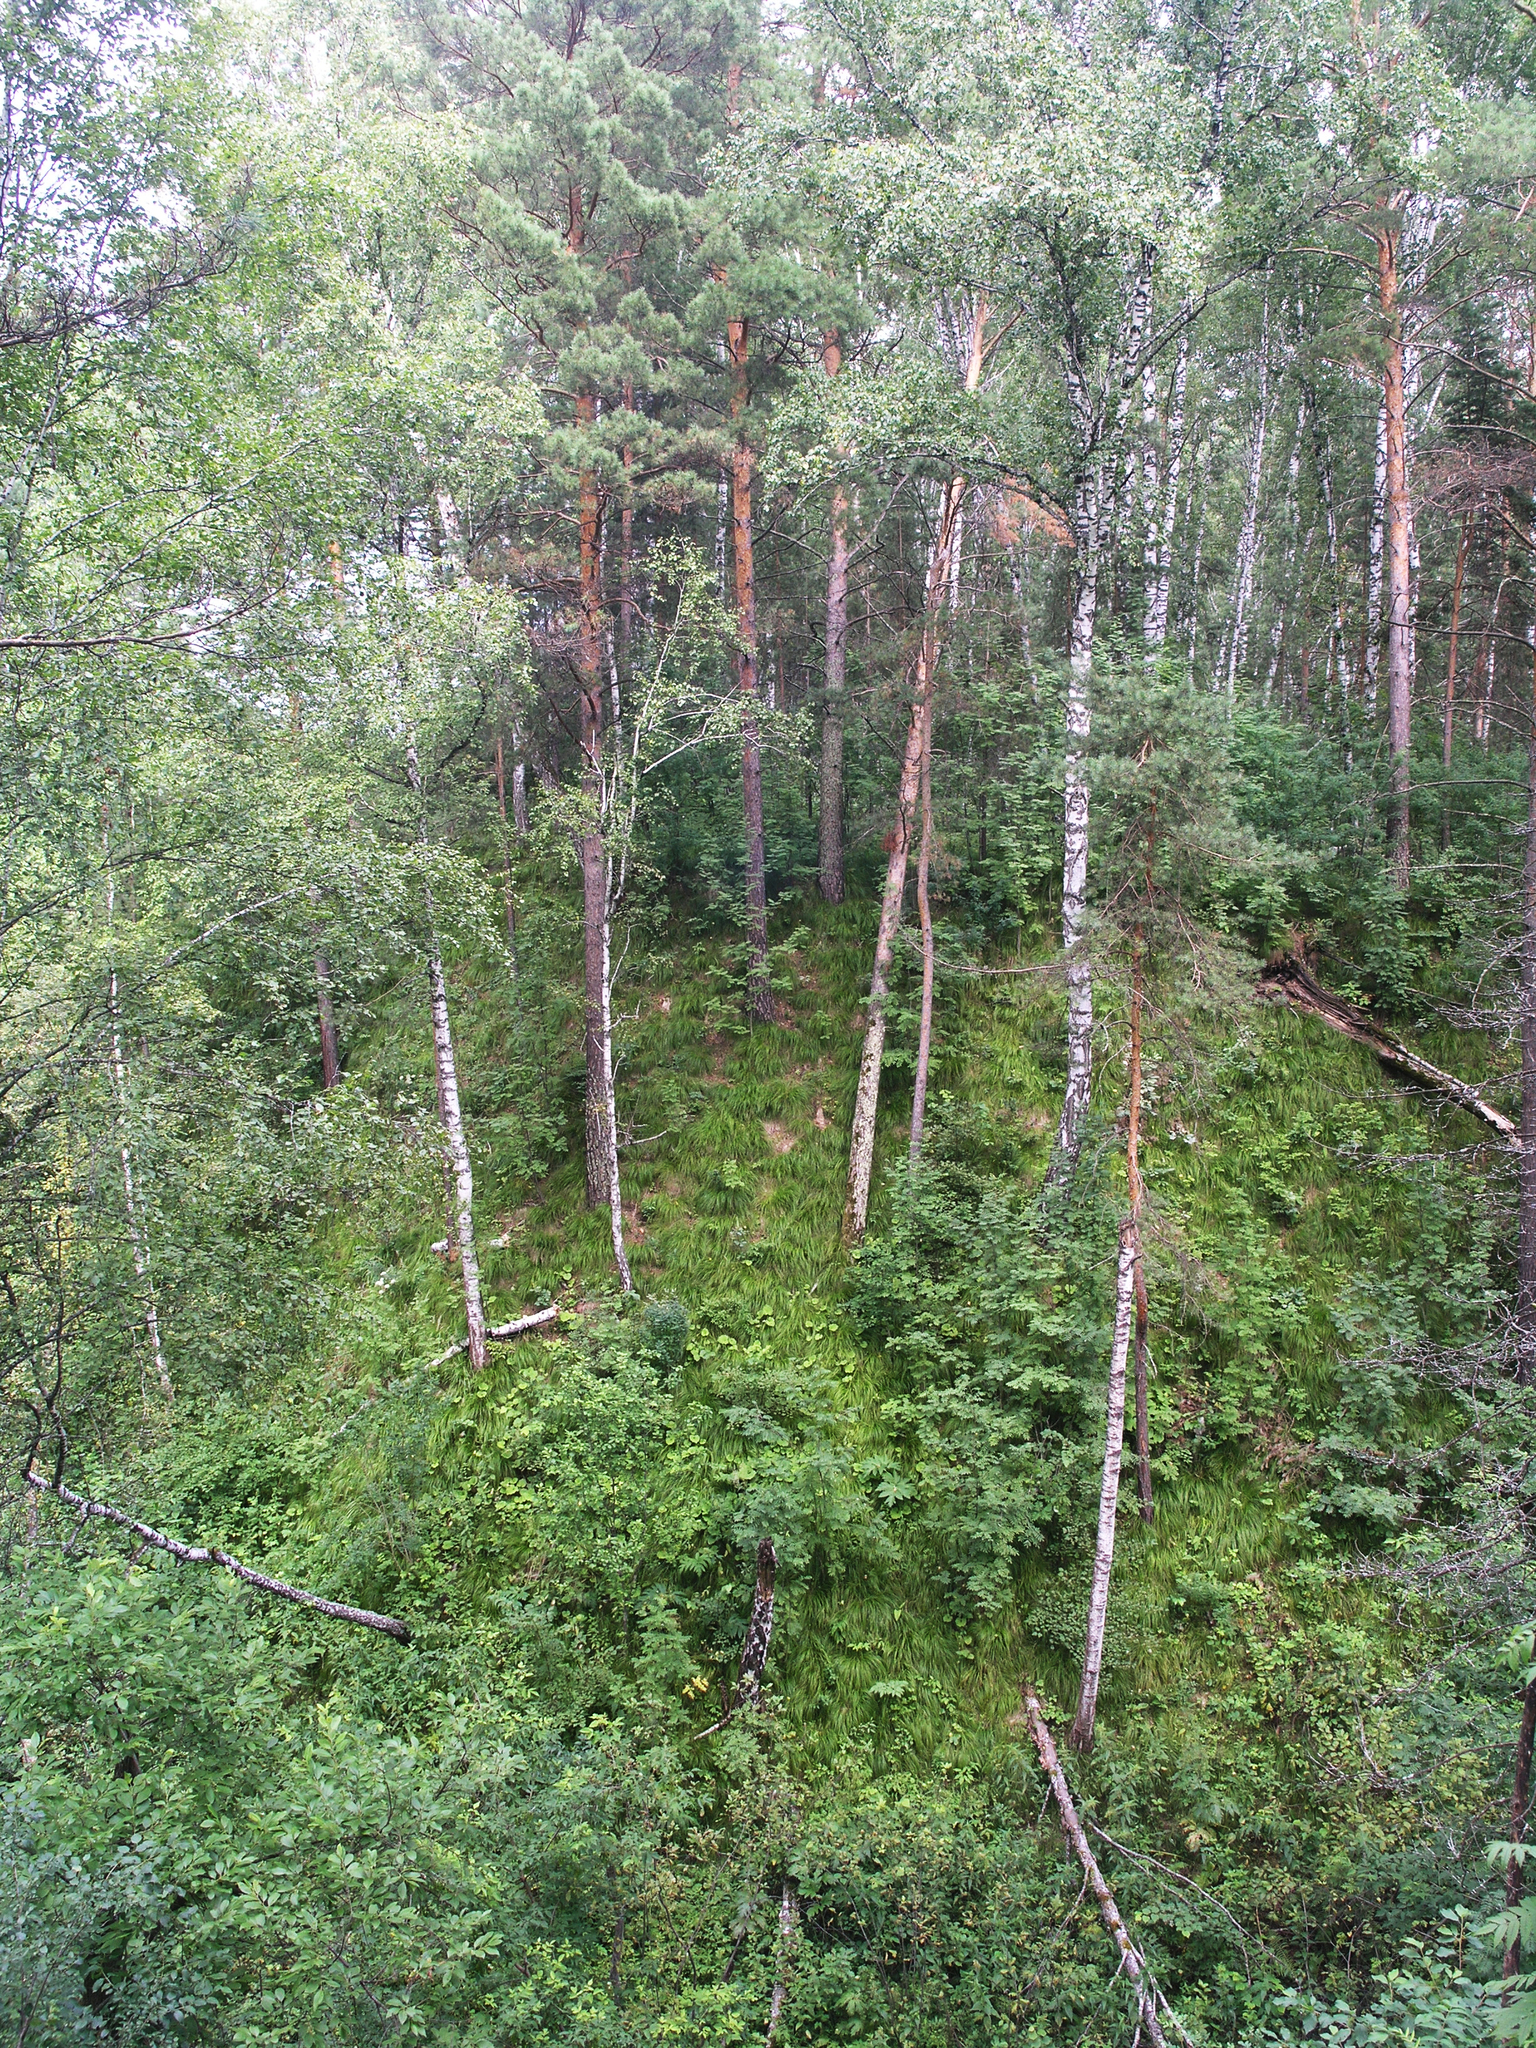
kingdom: Plantae
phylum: Tracheophyta
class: Pinopsida
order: Pinales
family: Pinaceae
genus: Pinus
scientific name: Pinus sylvestris
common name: Scots pine
